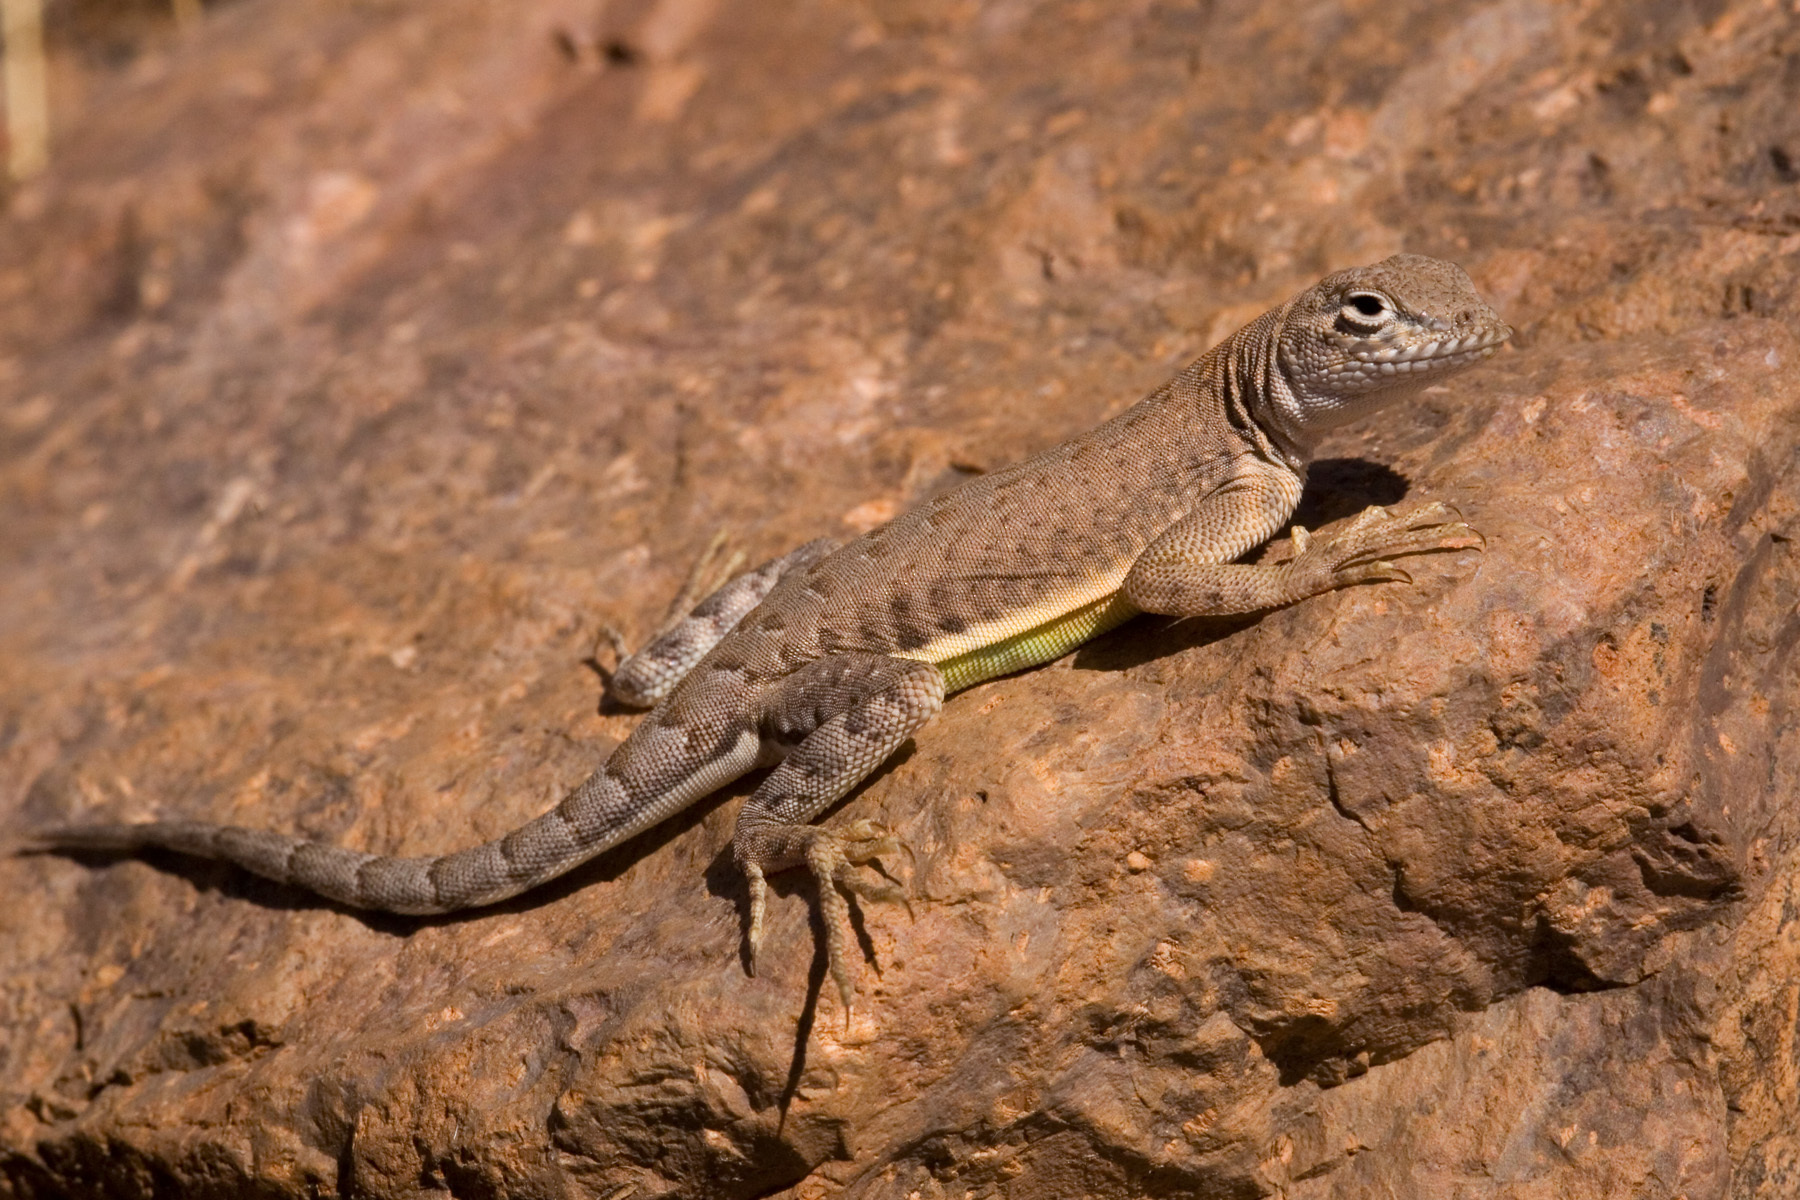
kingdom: Animalia
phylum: Chordata
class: Squamata
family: Phrynosomatidae
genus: Cophosaurus
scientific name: Cophosaurus texanus
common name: Greater earless lizard
